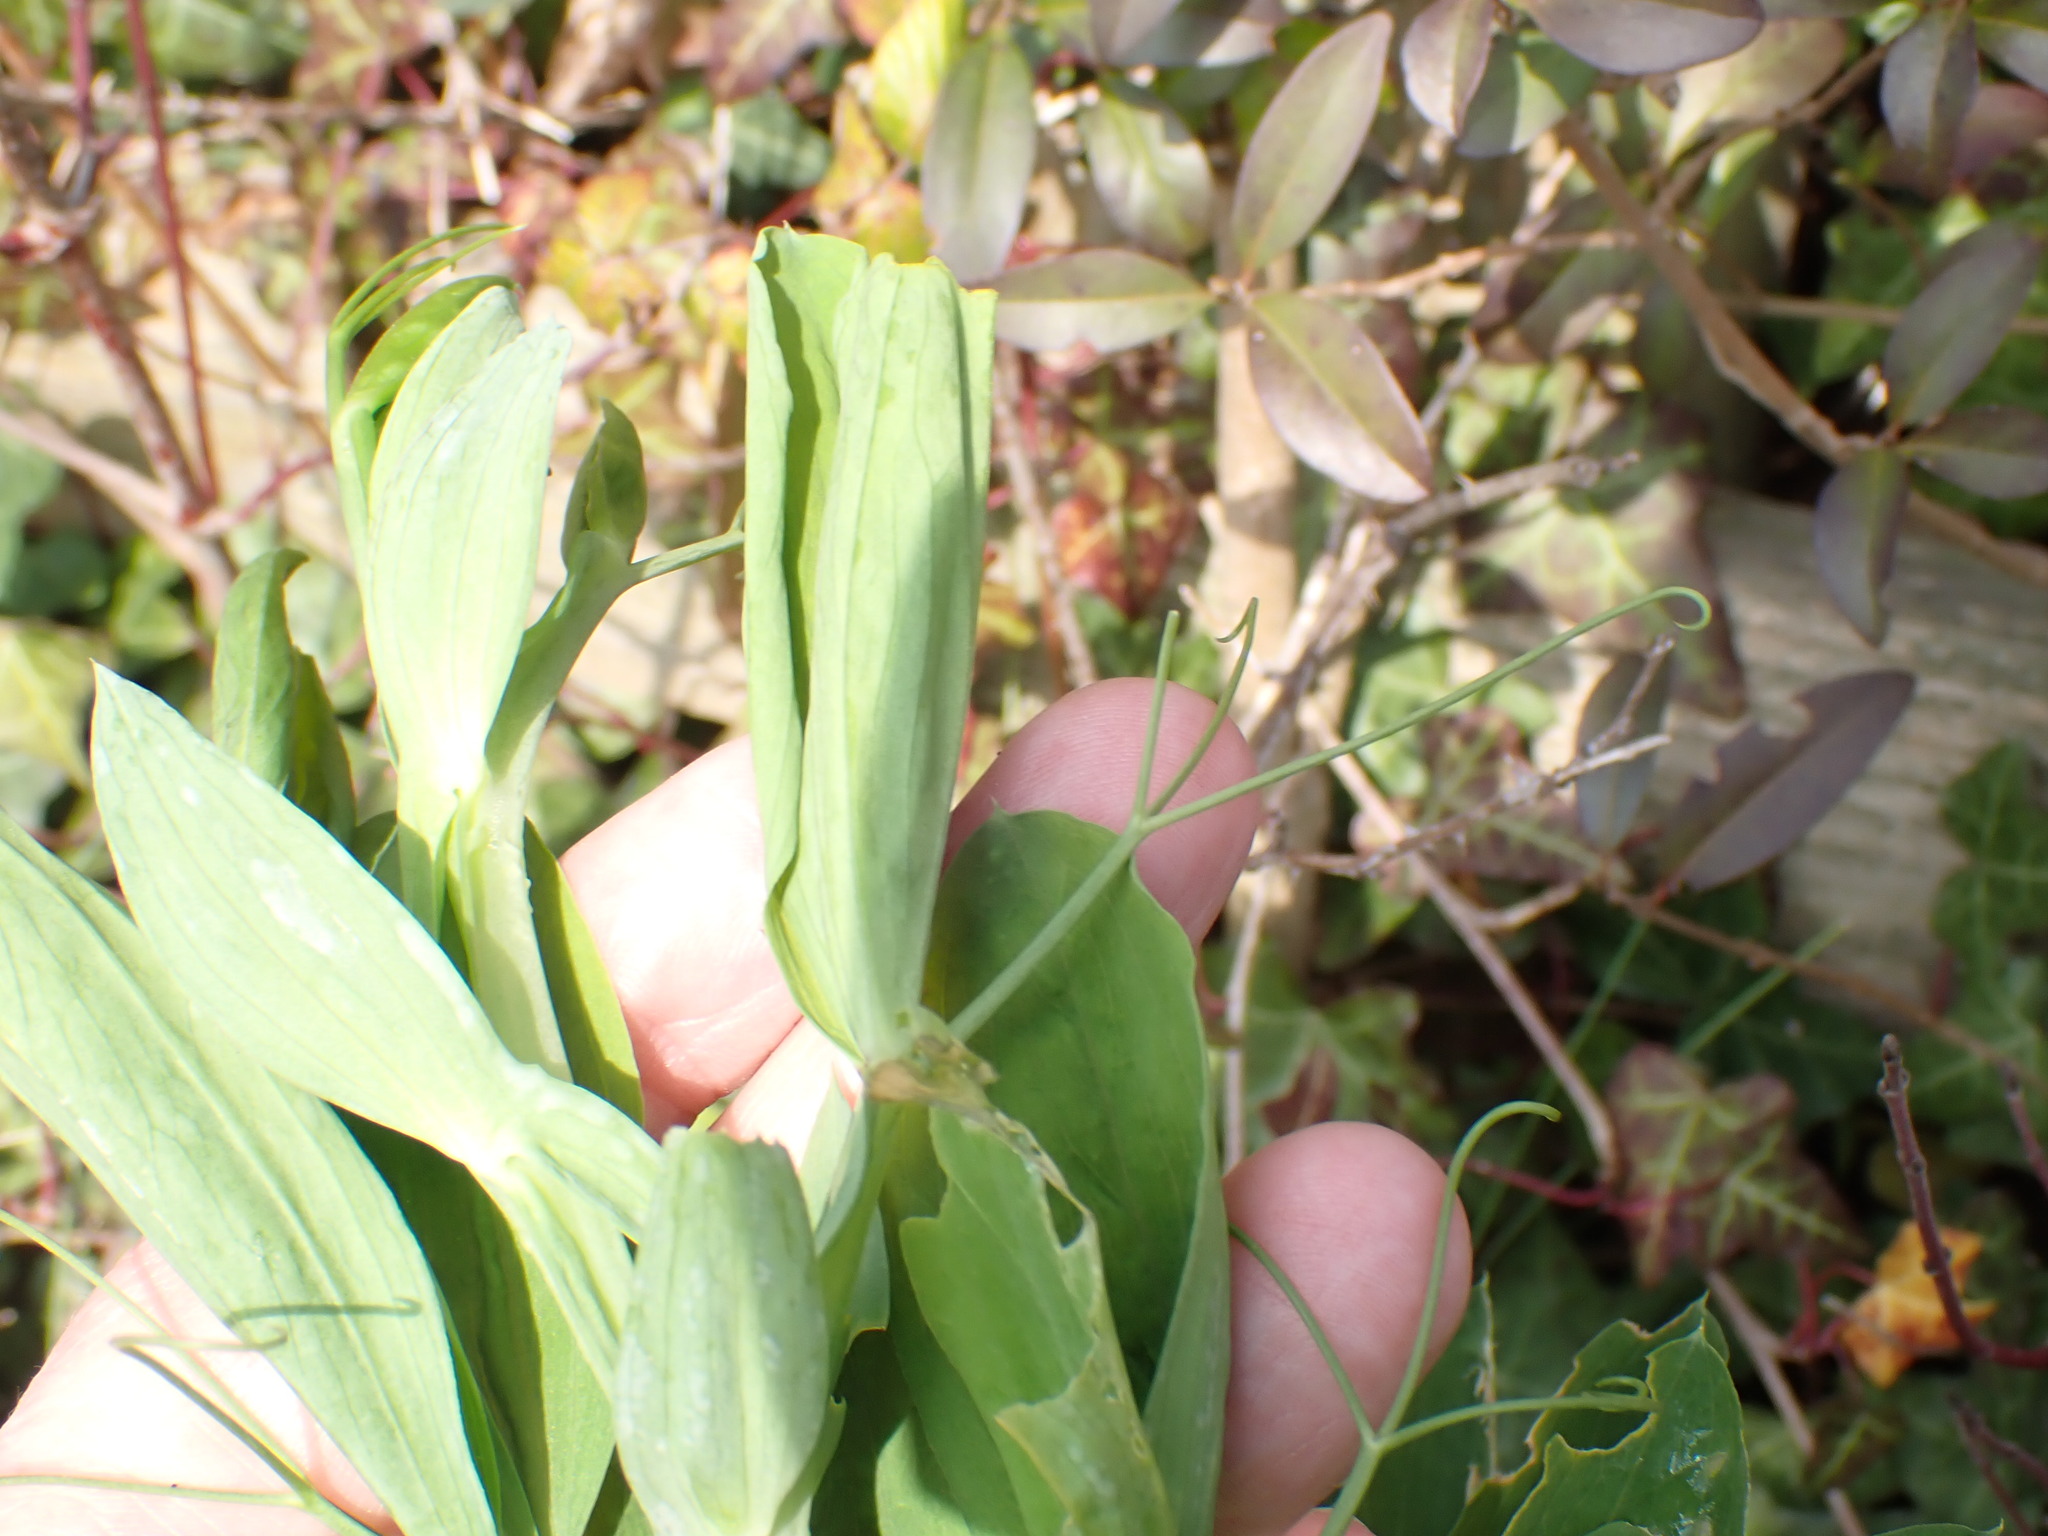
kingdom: Plantae
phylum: Tracheophyta
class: Magnoliopsida
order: Fabales
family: Fabaceae
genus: Lathyrus
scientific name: Lathyrus latifolius
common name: Perennial pea
